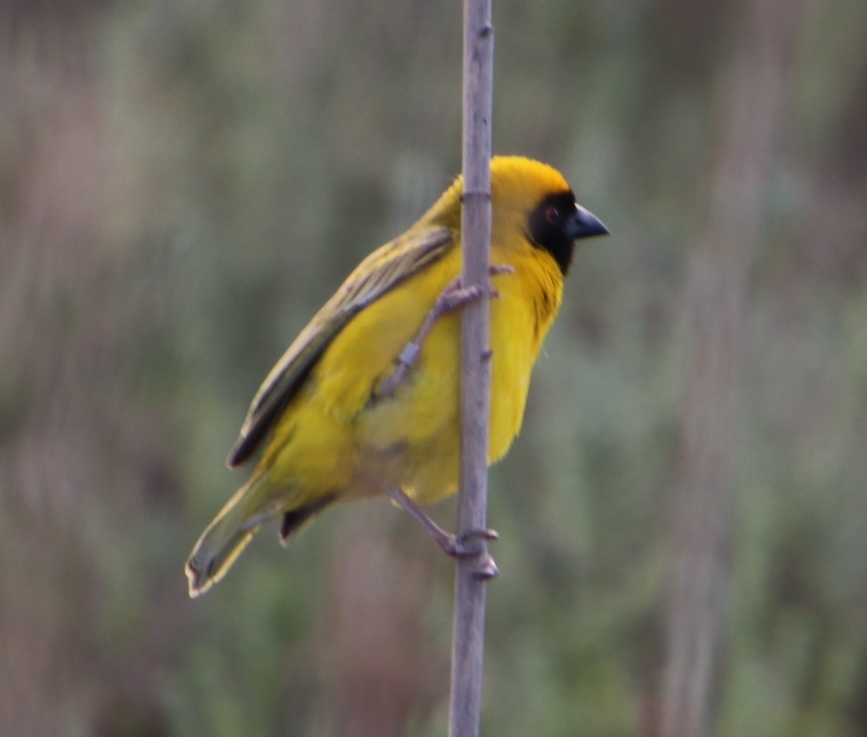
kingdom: Animalia
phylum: Chordata
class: Aves
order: Passeriformes
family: Ploceidae
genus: Ploceus
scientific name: Ploceus velatus
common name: Southern masked weaver
